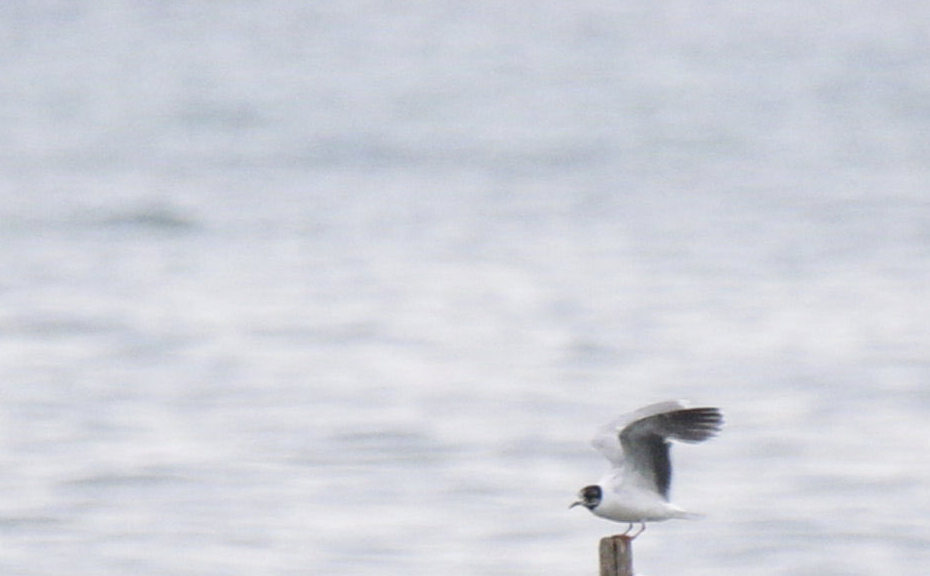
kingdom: Animalia
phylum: Chordata
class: Aves
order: Charadriiformes
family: Laridae
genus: Hydrocoloeus
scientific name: Hydrocoloeus minutus
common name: Little gull
